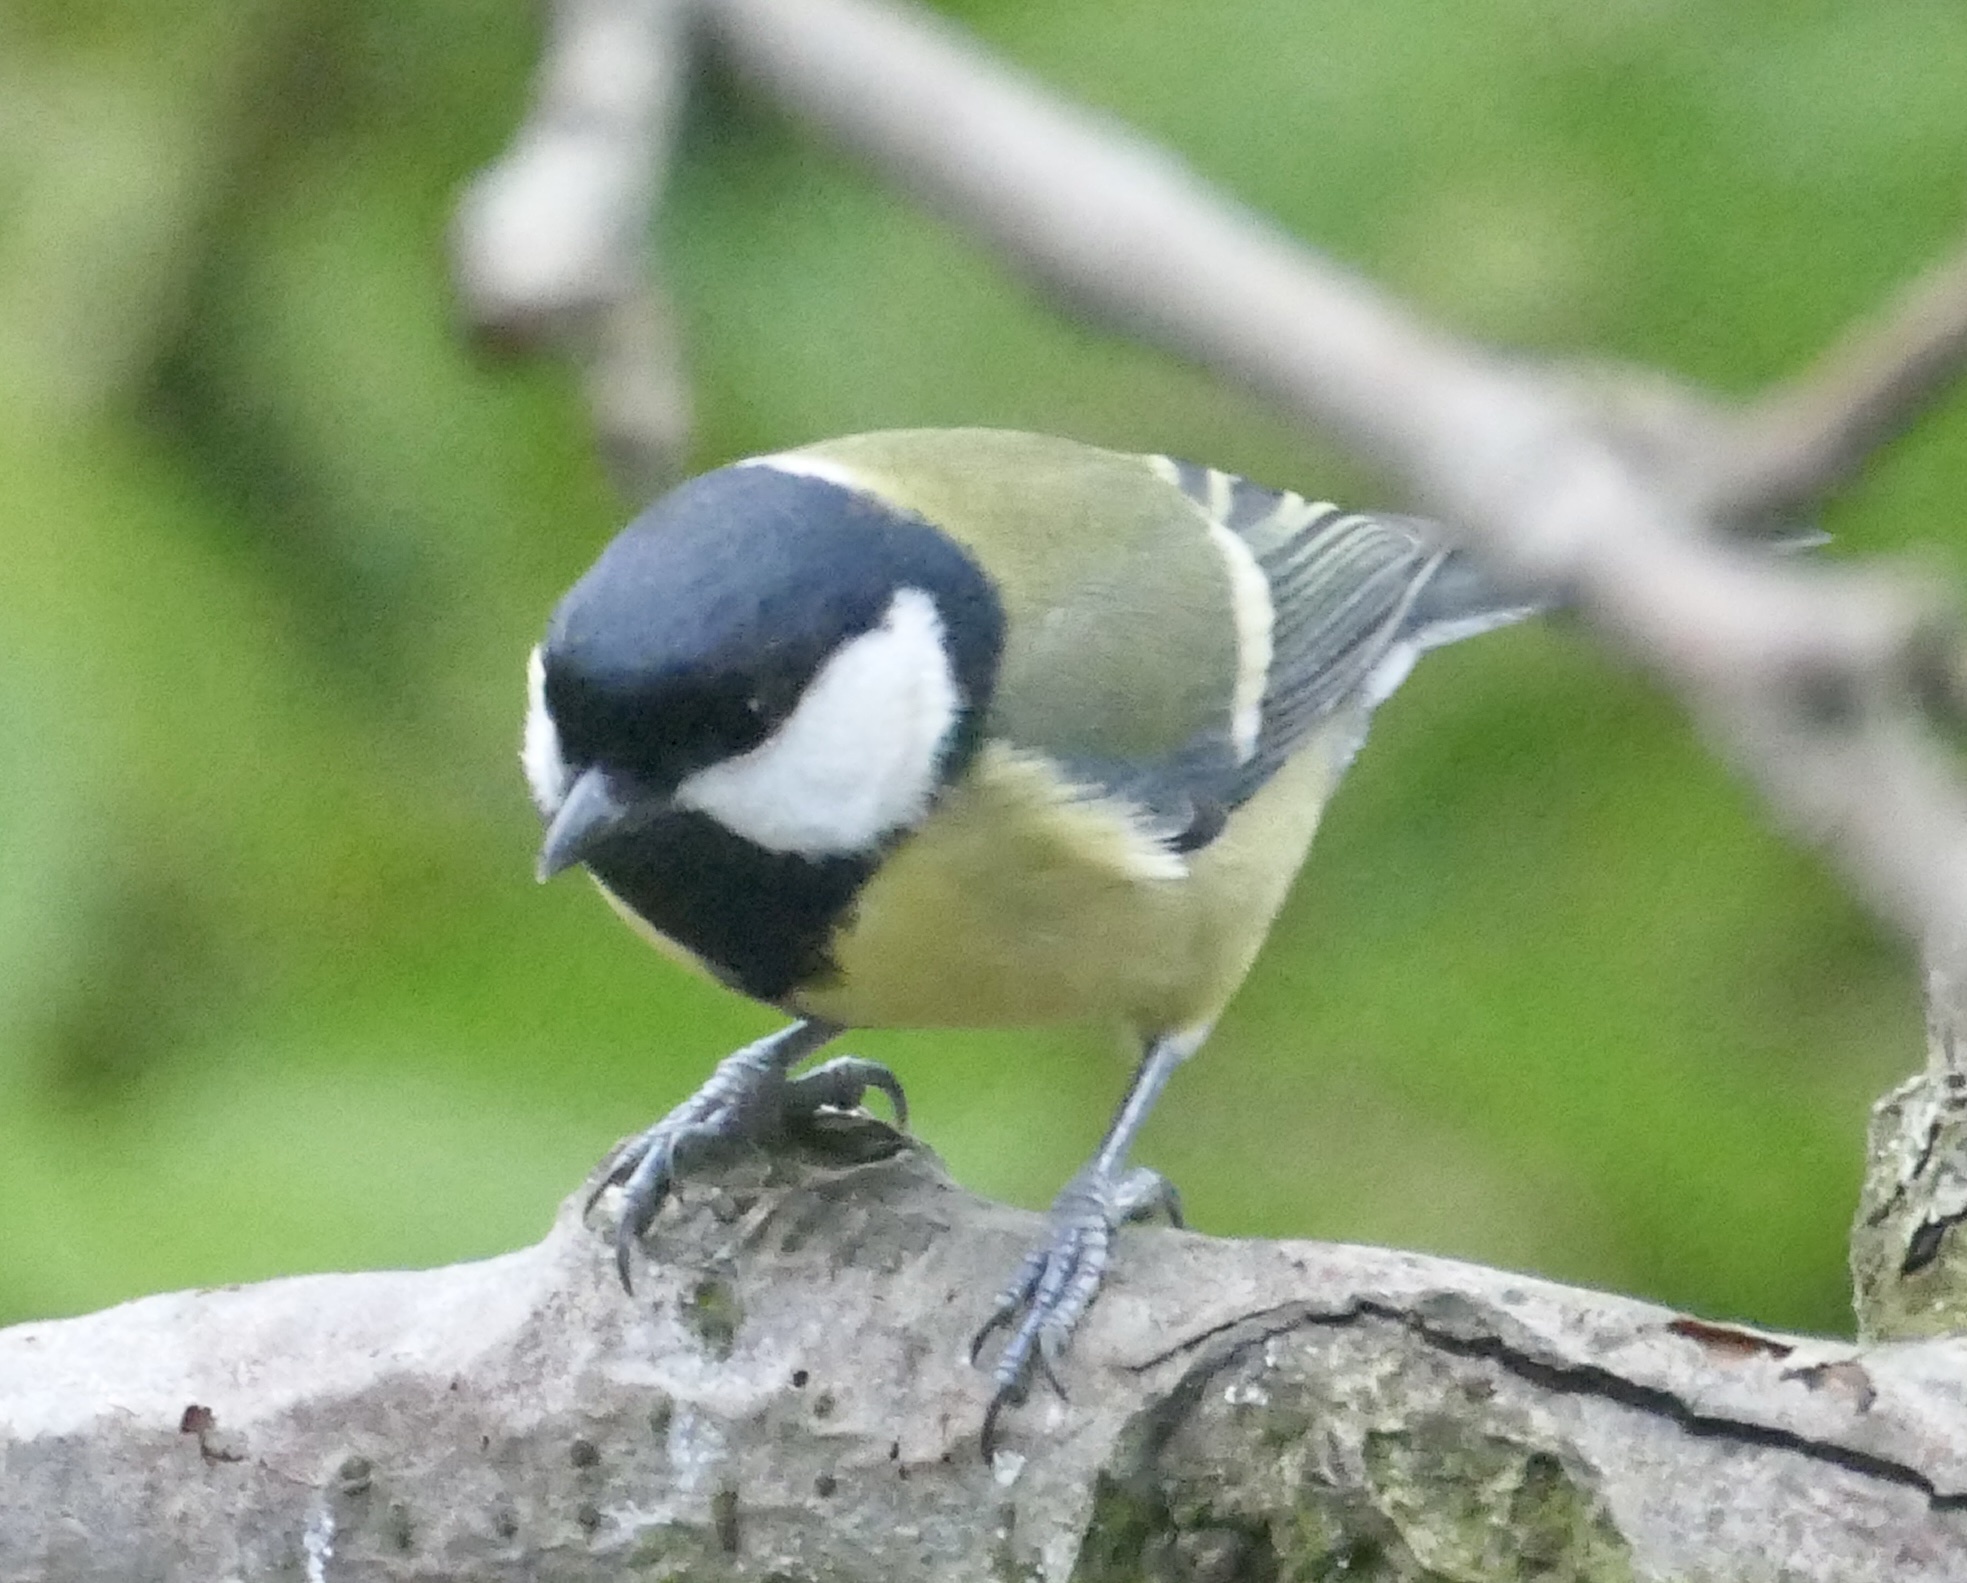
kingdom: Animalia
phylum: Chordata
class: Aves
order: Passeriformes
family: Paridae
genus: Parus
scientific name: Parus major
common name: Great tit
